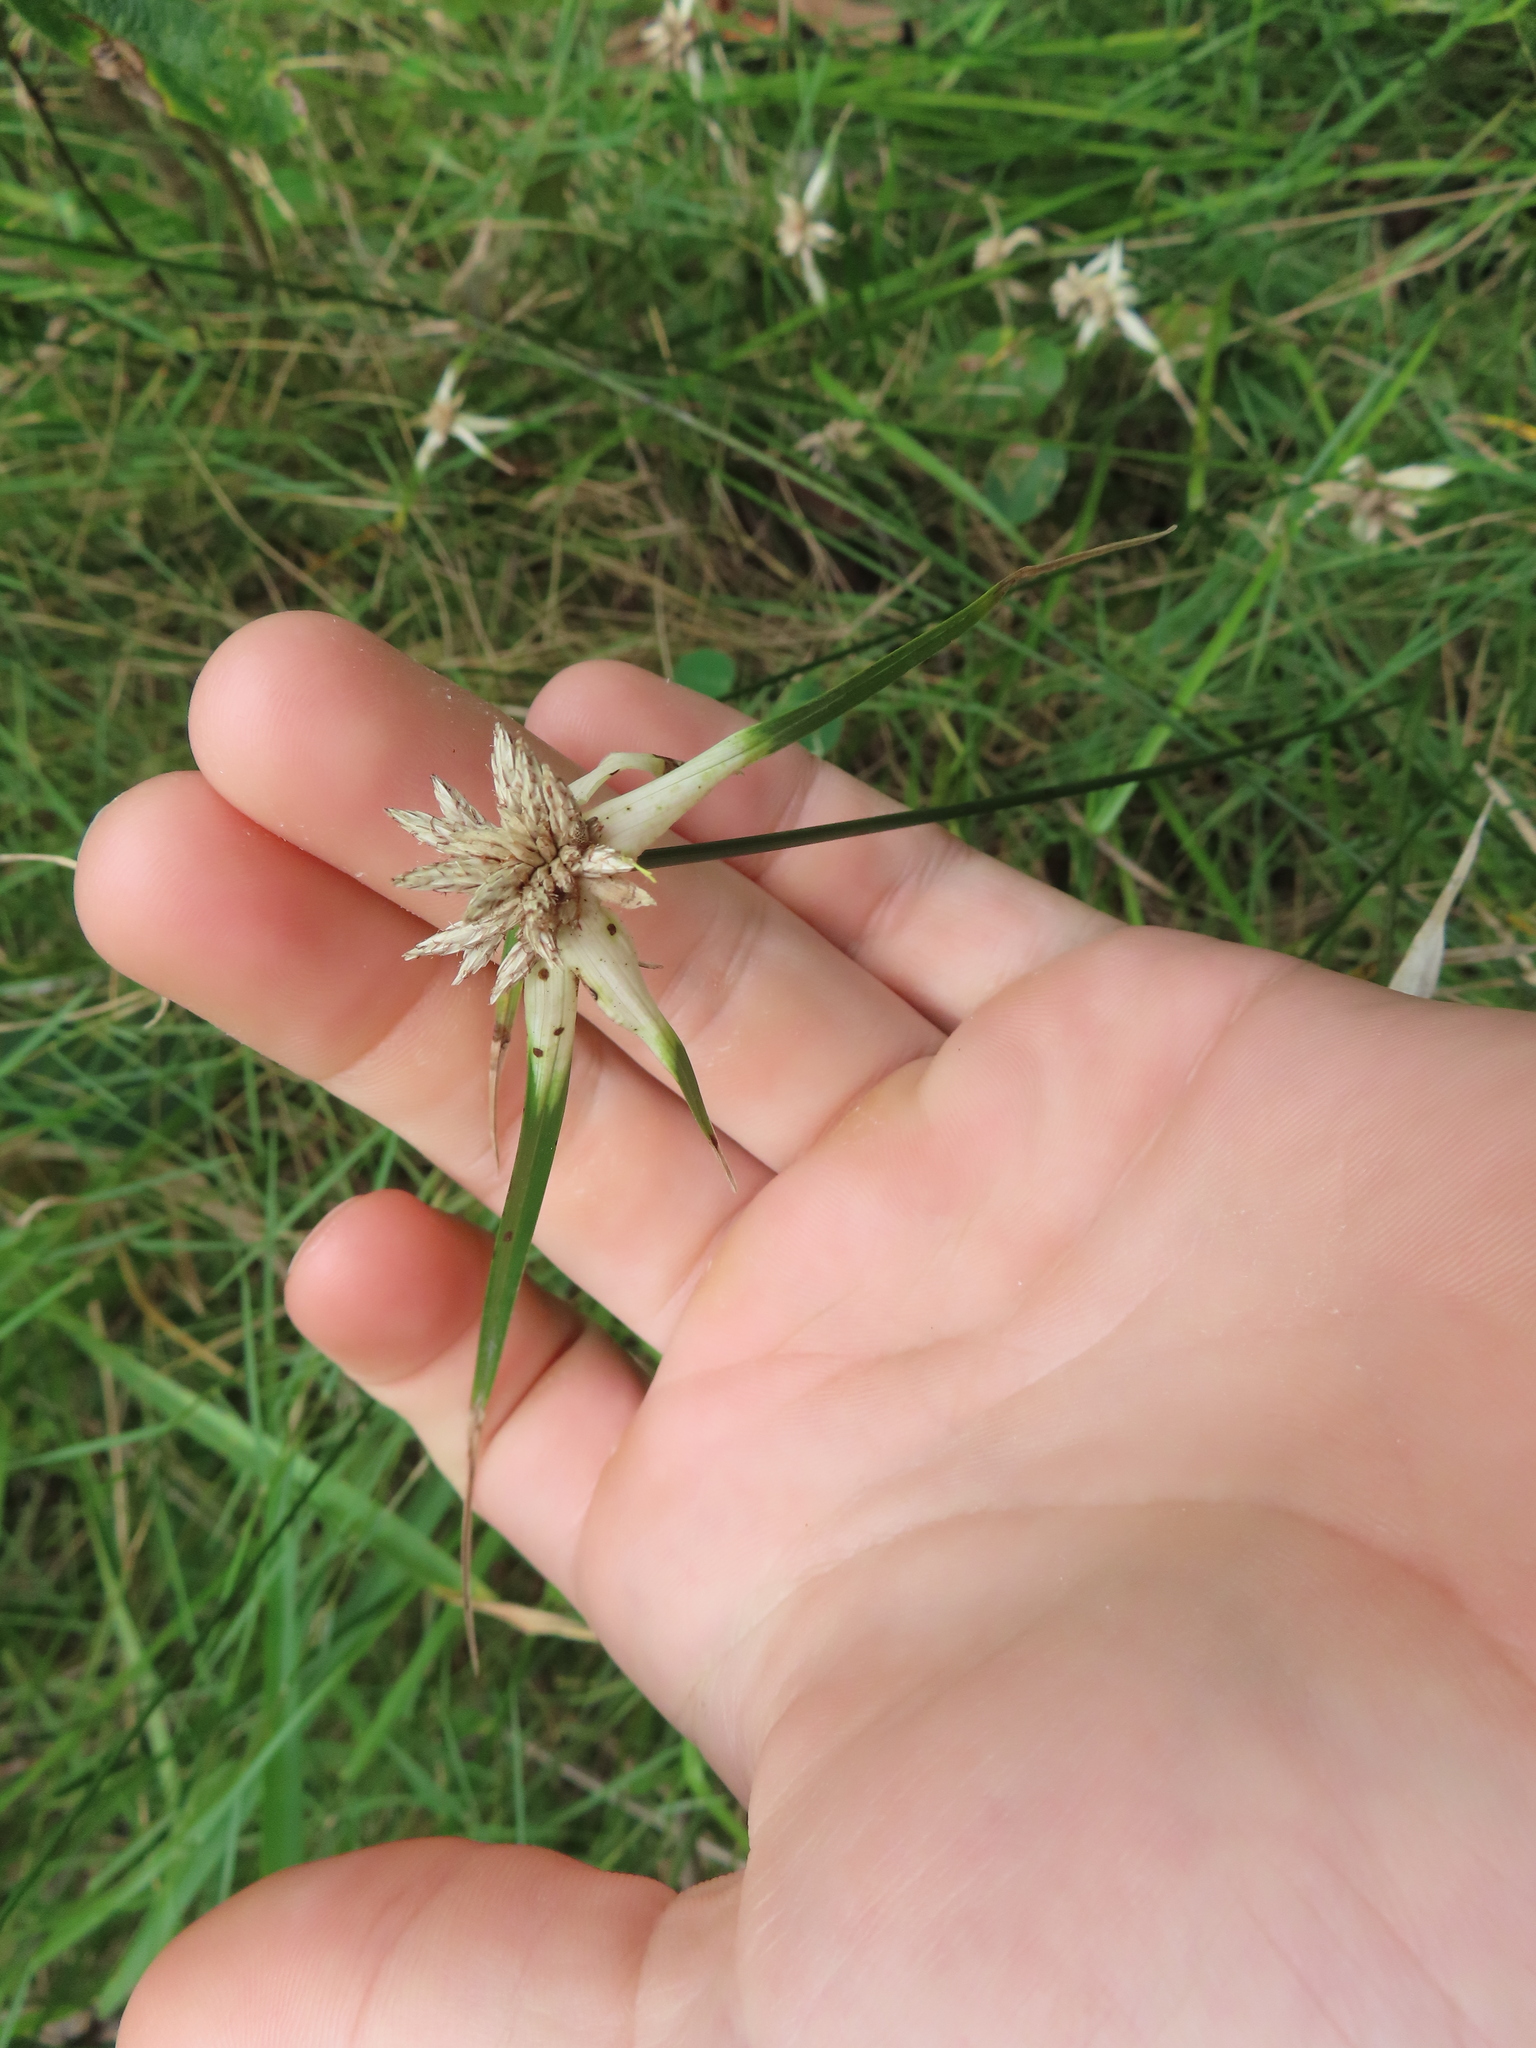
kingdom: Plantae
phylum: Tracheophyta
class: Liliopsida
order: Poales
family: Cyperaceae
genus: Rhynchospora
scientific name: Rhynchospora colorata
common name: Star sedge
